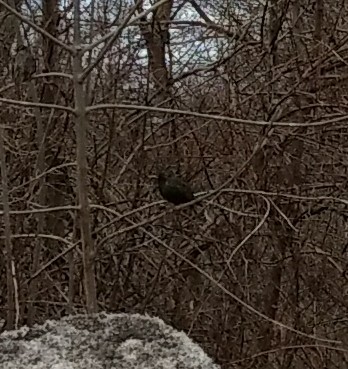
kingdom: Animalia
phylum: Chordata
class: Aves
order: Passeriformes
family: Sturnidae
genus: Sturnus
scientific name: Sturnus vulgaris
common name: Common starling
